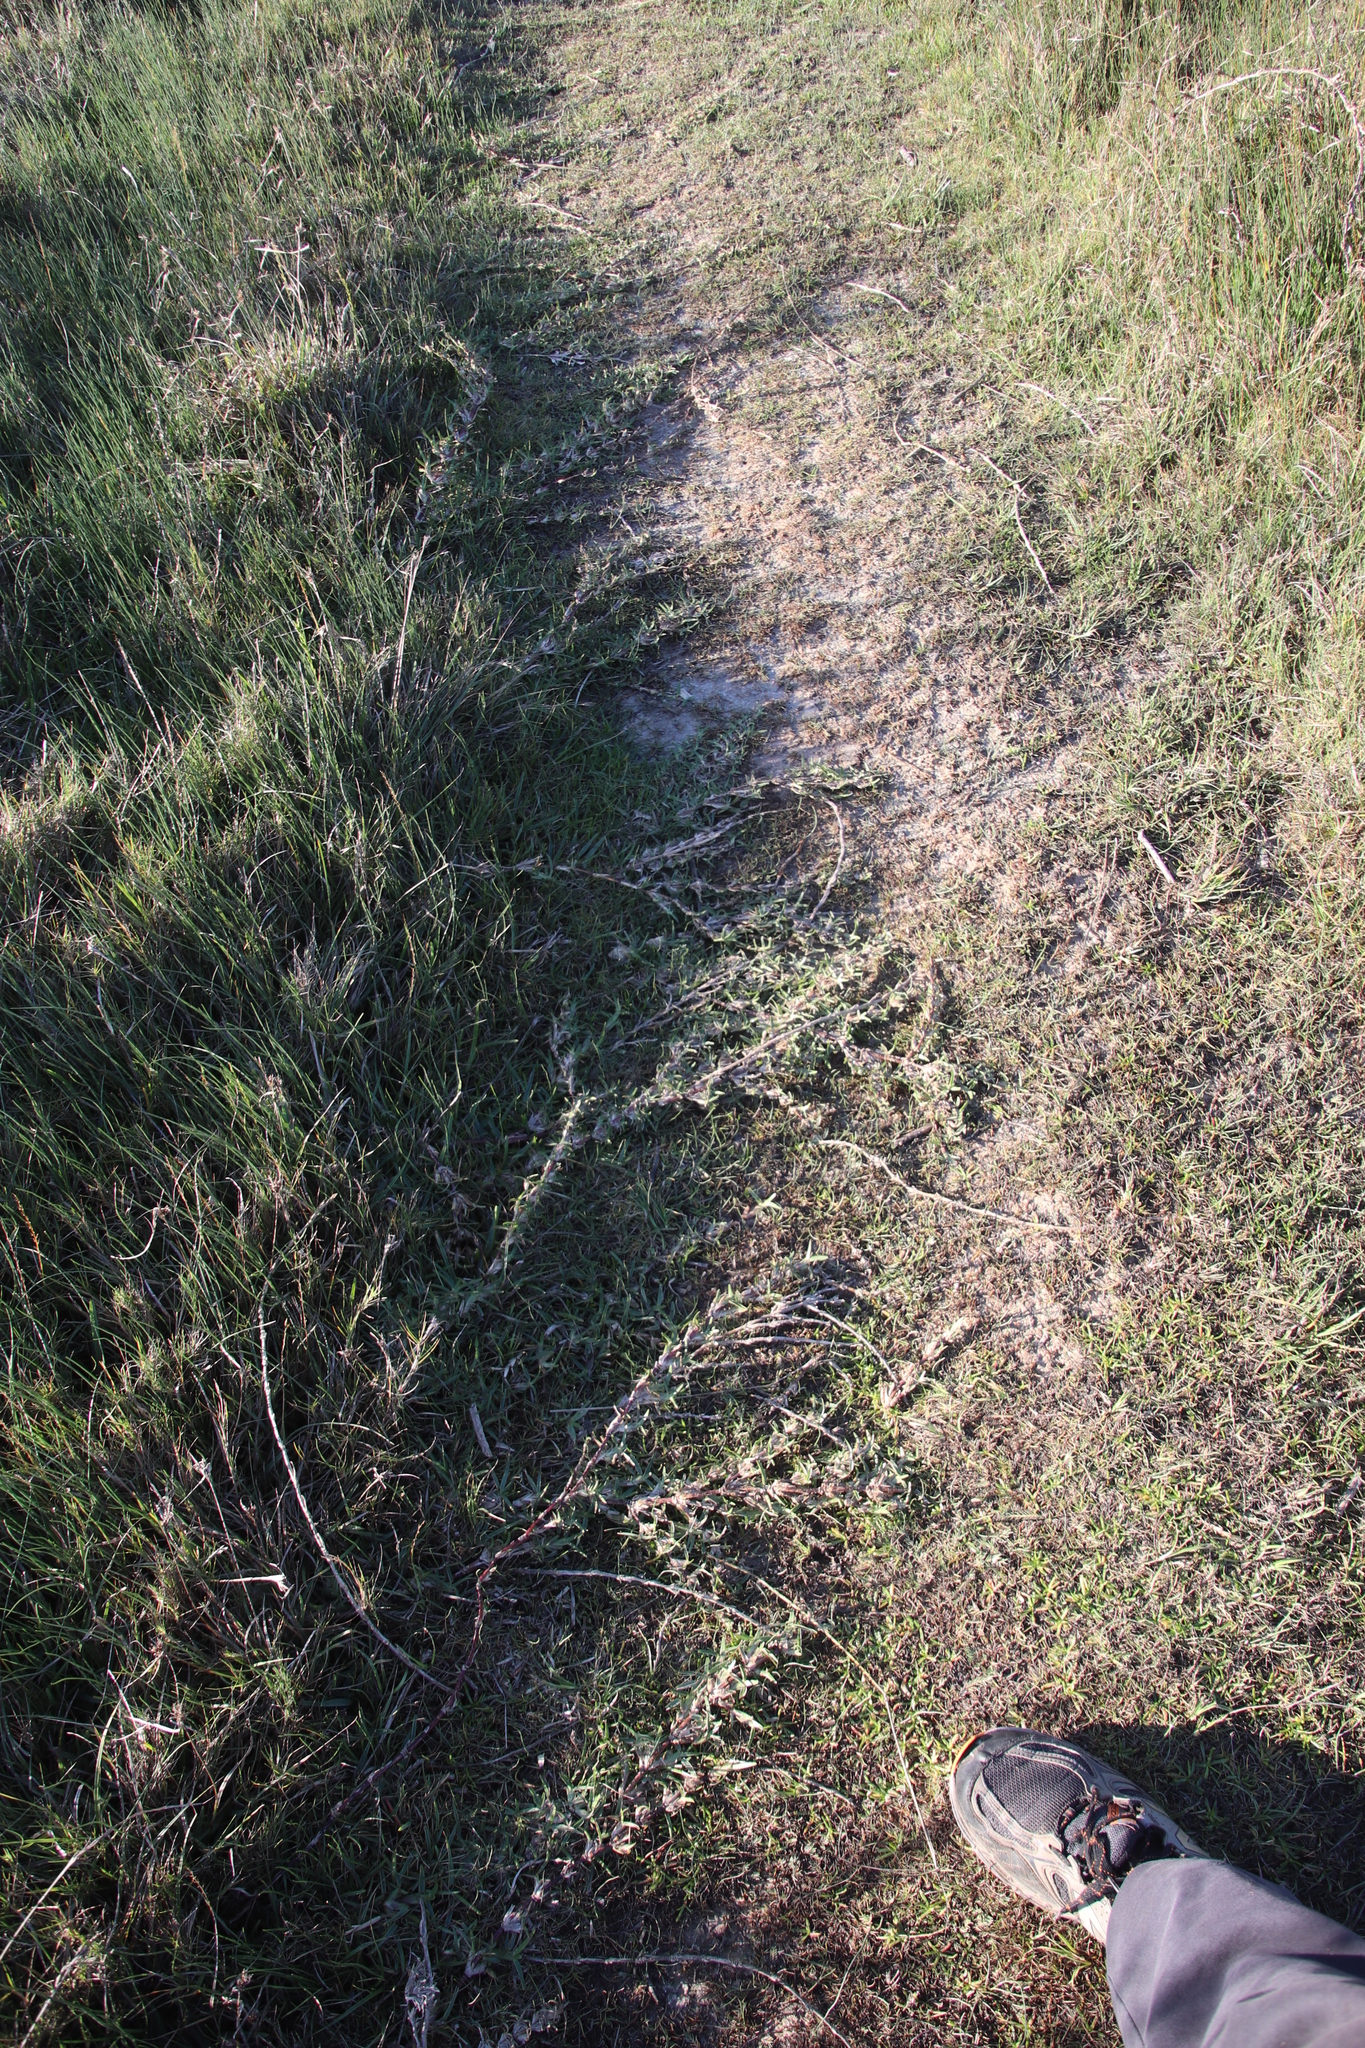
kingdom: Plantae
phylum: Tracheophyta
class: Liliopsida
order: Poales
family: Poaceae
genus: Stenotaphrum
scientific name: Stenotaphrum secundatum
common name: St. augustine grass
